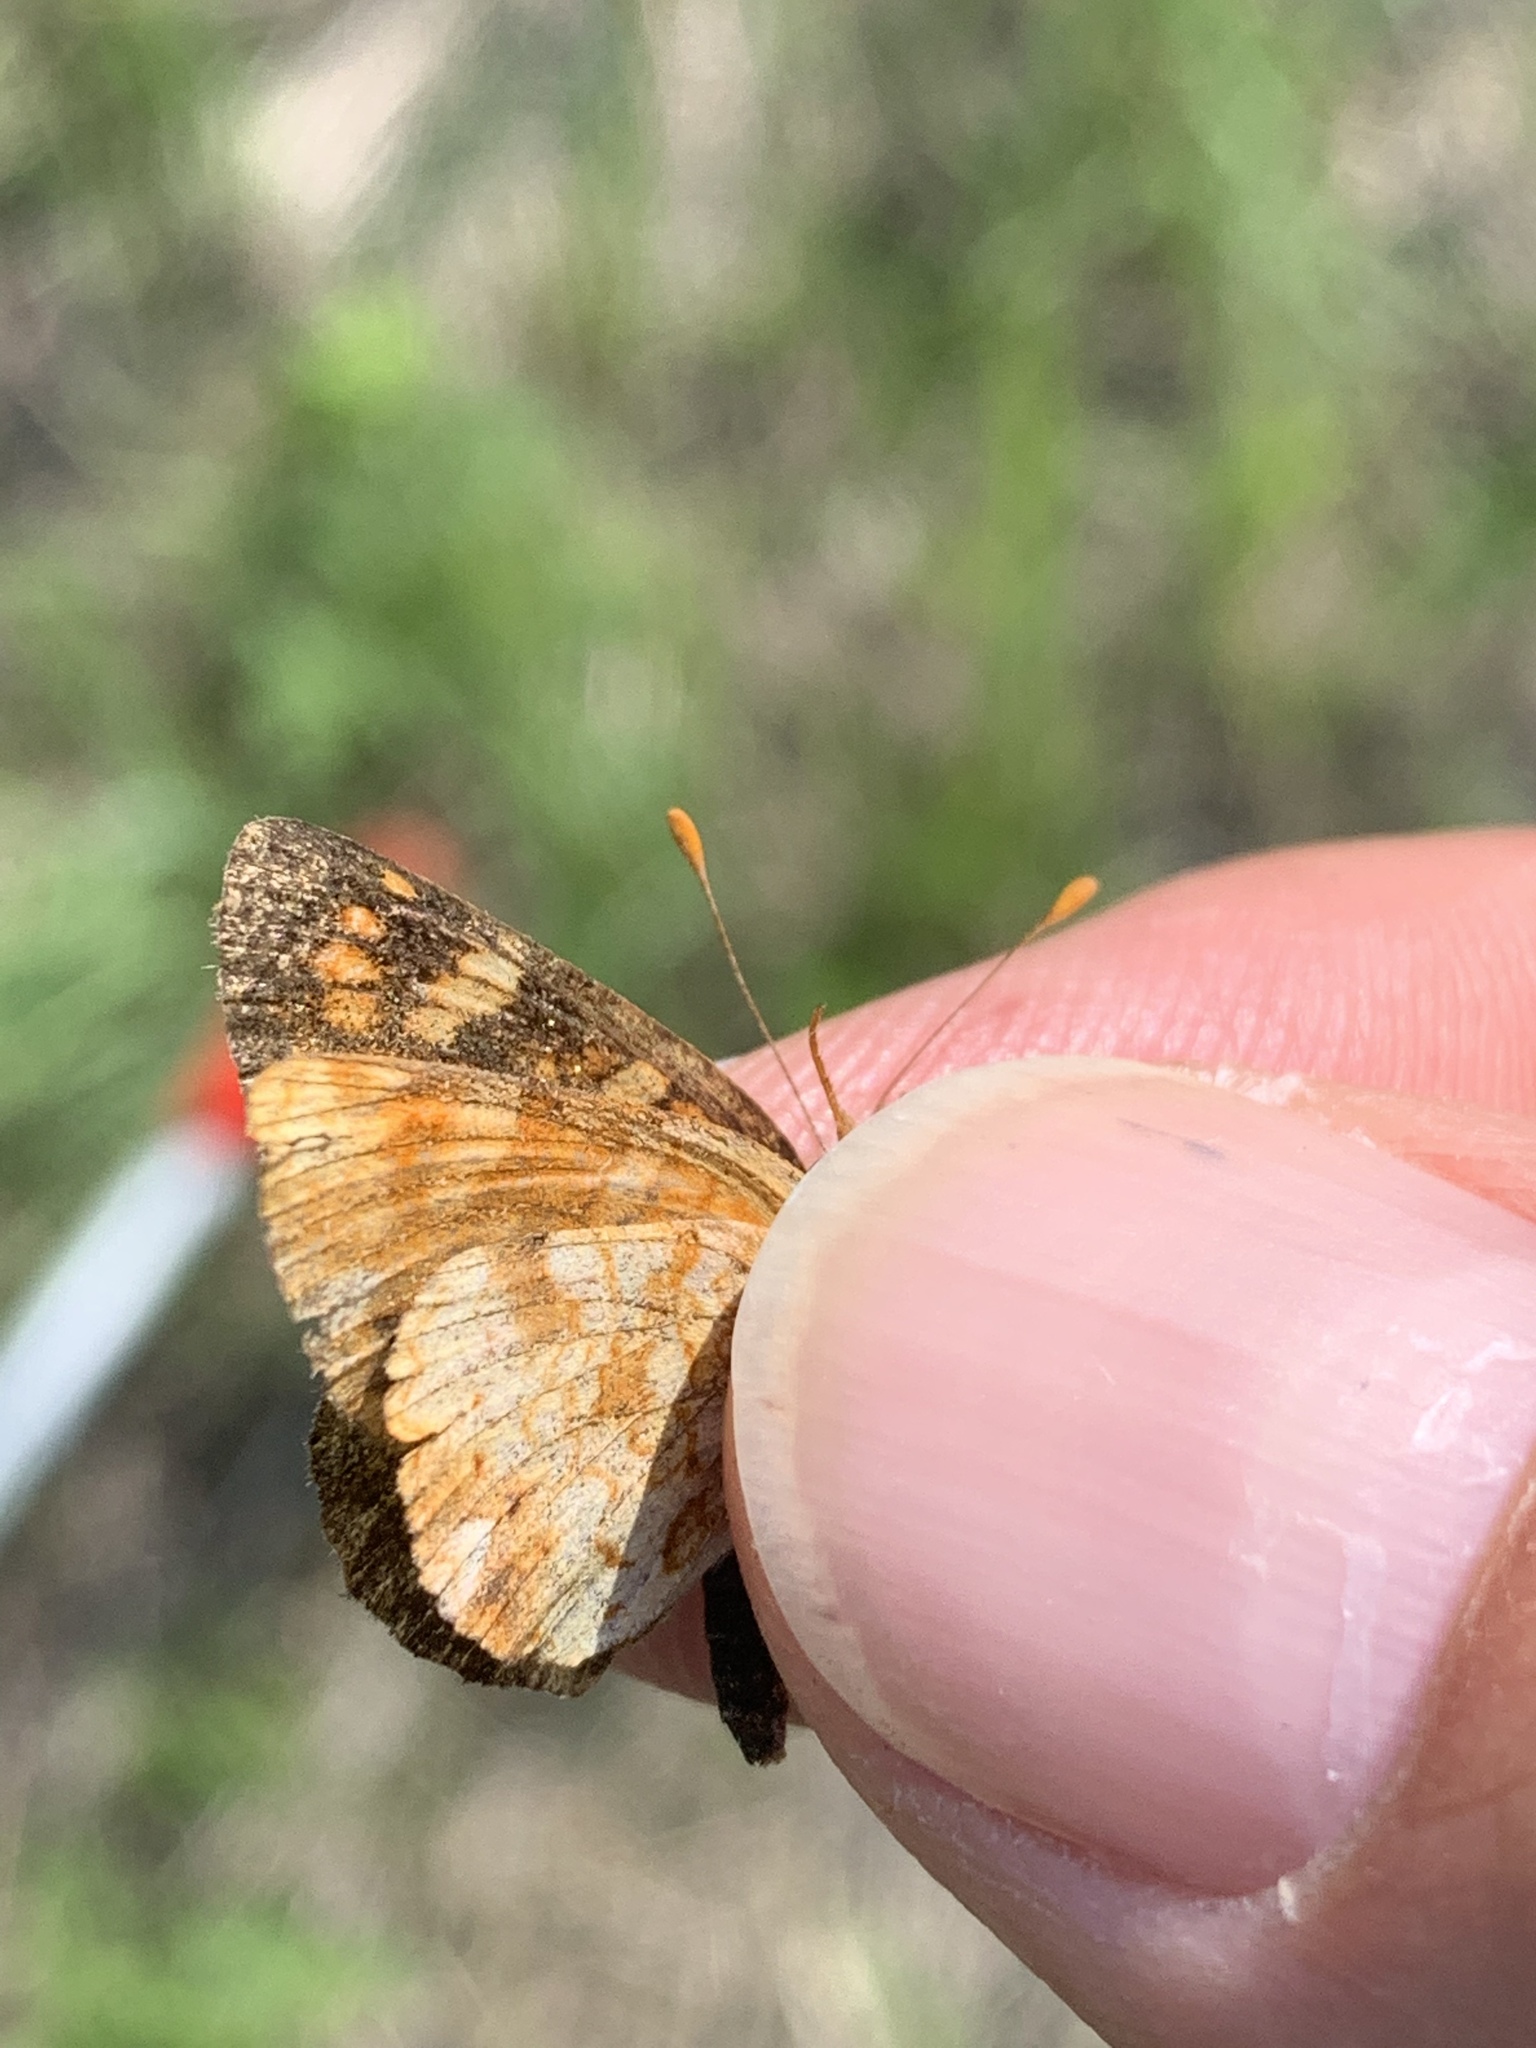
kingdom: Animalia
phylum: Arthropoda
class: Insecta
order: Lepidoptera
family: Nymphalidae
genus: Phyciodes
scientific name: Phyciodes tharos
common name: Pearl crescent
